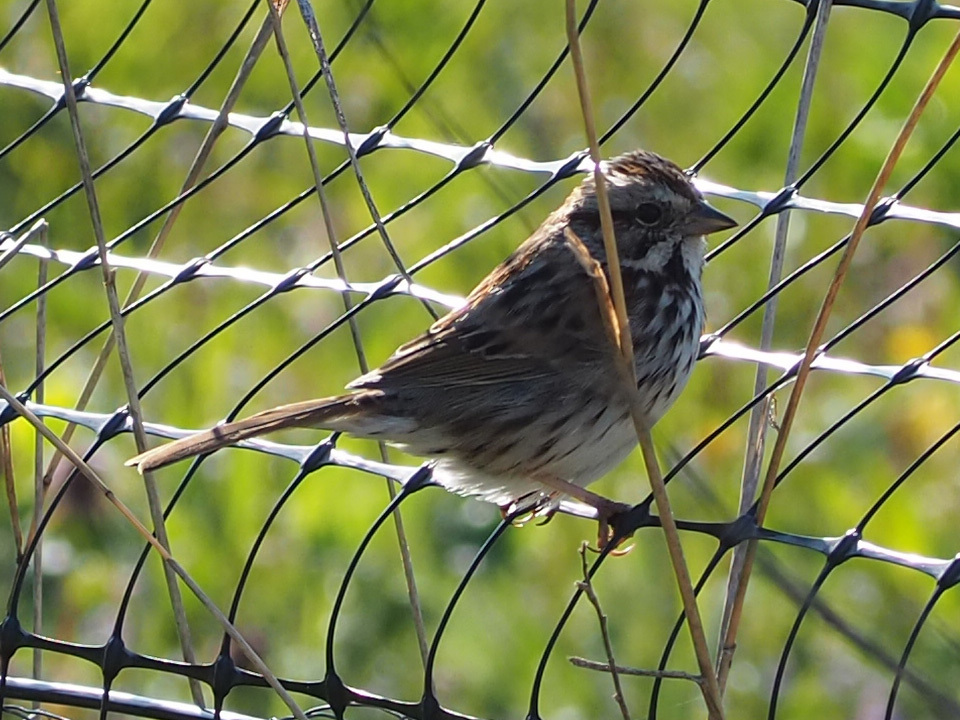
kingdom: Animalia
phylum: Chordata
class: Aves
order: Passeriformes
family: Passerellidae
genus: Melospiza
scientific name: Melospiza melodia
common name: Song sparrow
